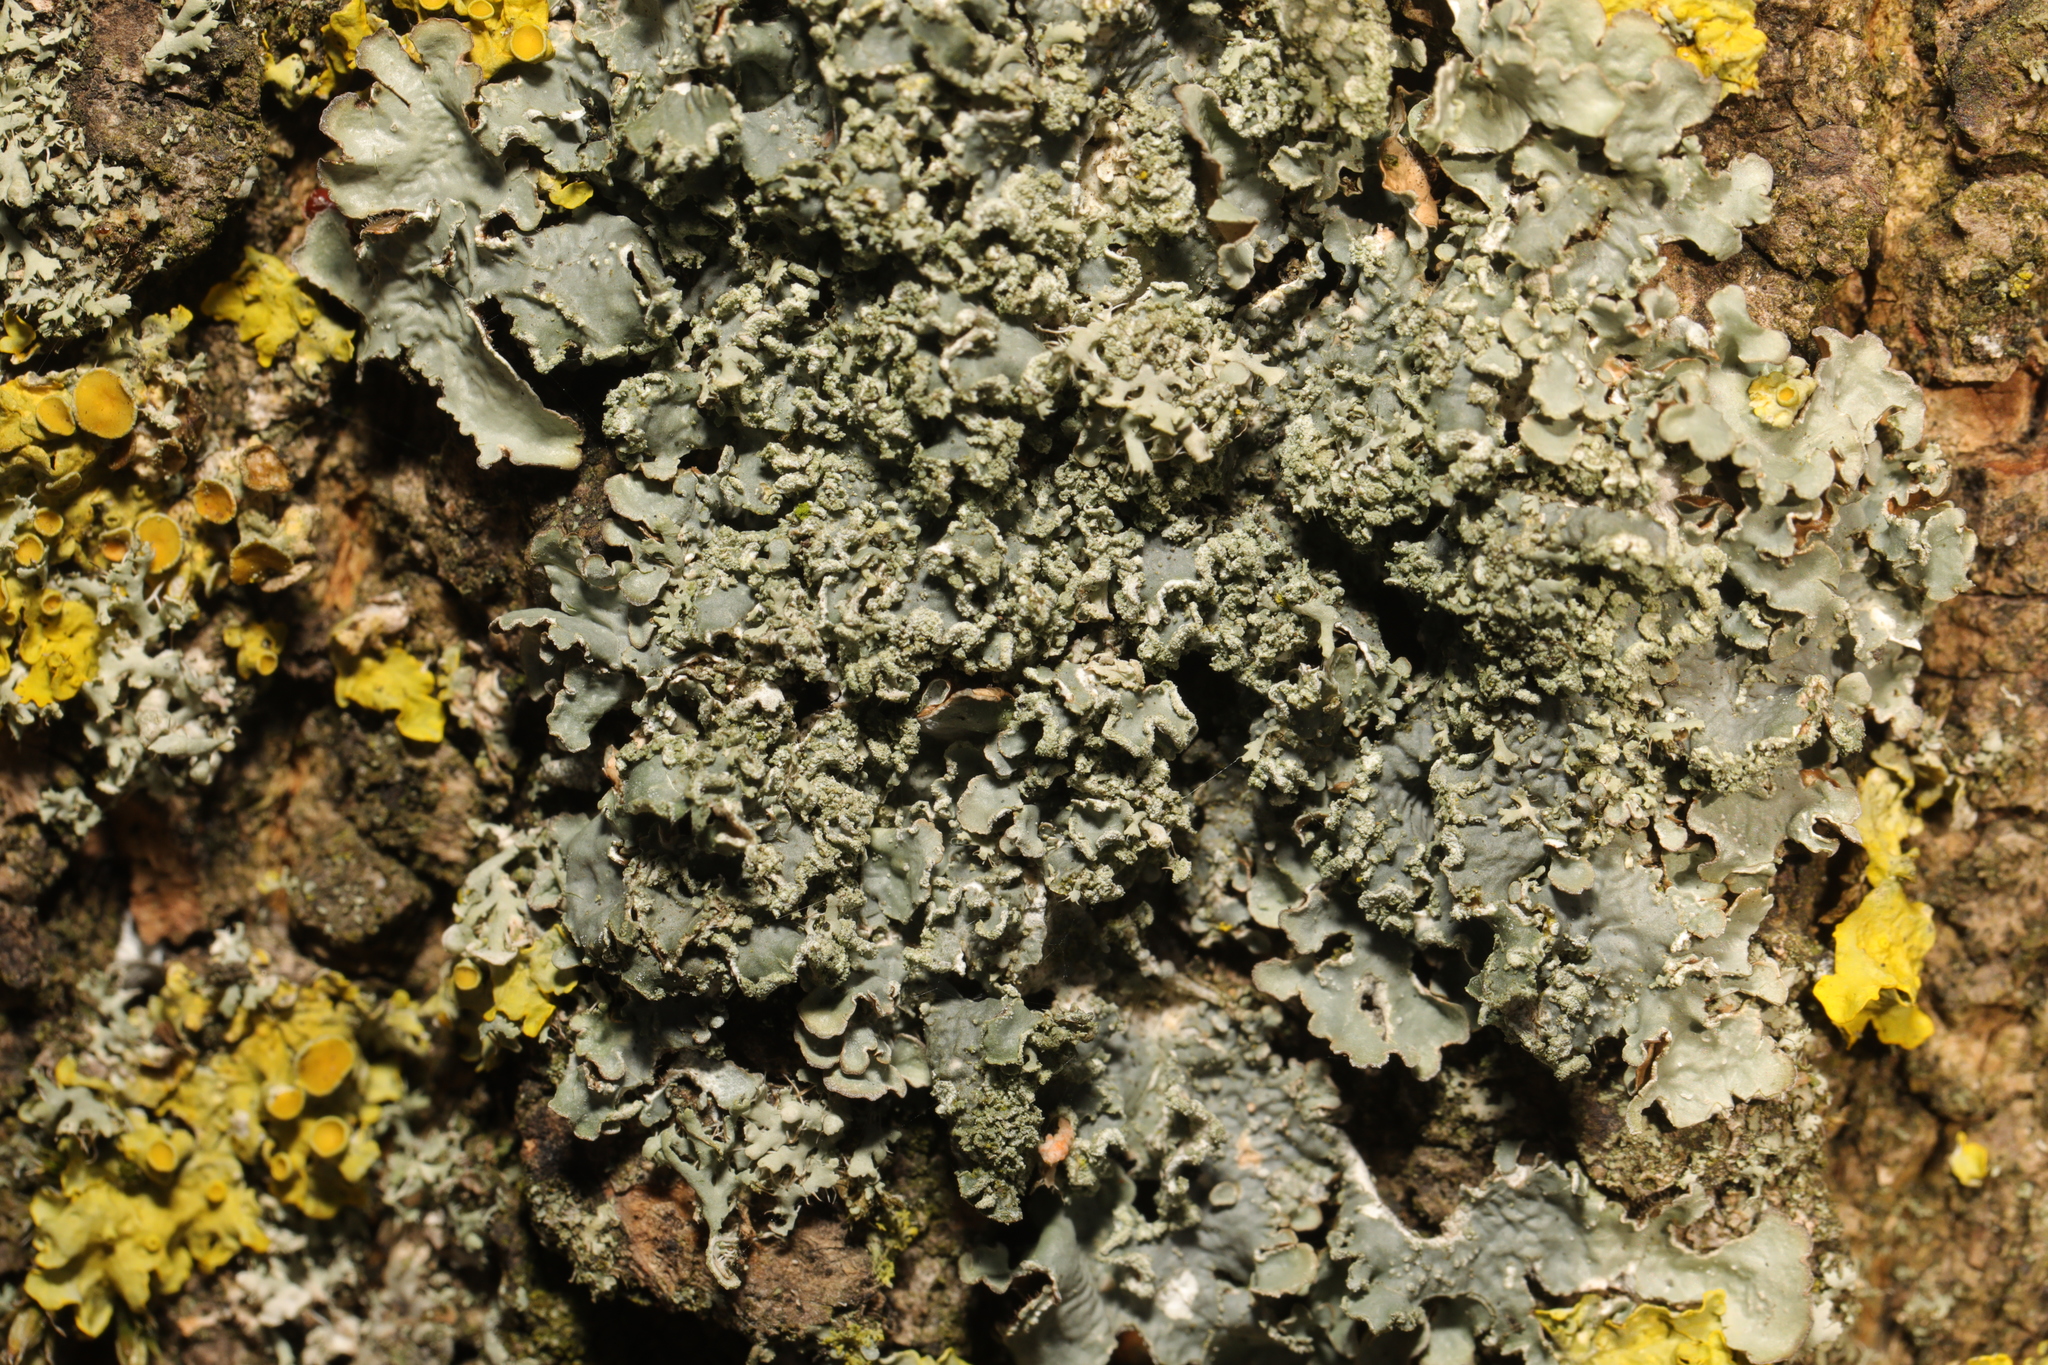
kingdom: Fungi
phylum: Ascomycota
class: Lecanoromycetes
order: Lecanorales
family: Parmeliaceae
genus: Punctelia
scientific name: Punctelia jeckeri
